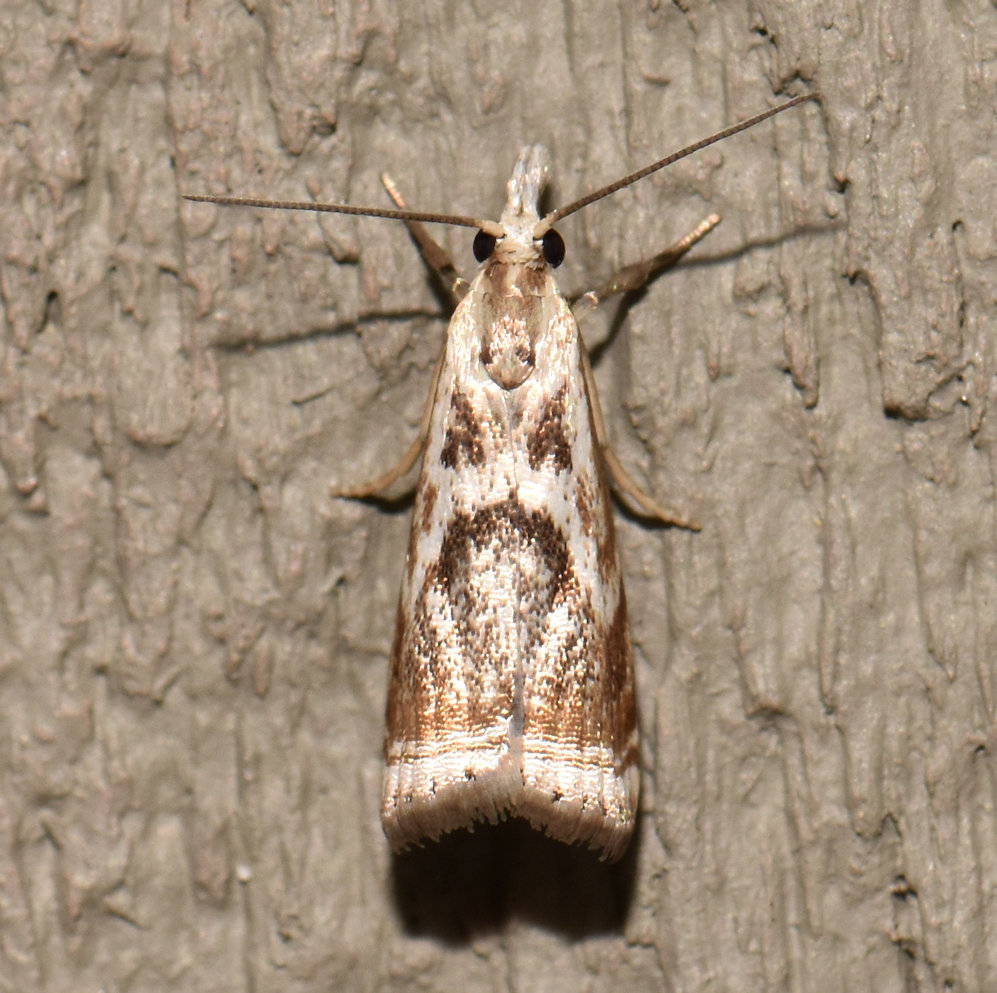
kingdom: Animalia
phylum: Arthropoda
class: Insecta
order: Lepidoptera
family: Crambidae
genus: Microcrambus
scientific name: Microcrambus elegans
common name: Elegant grass-veneer
